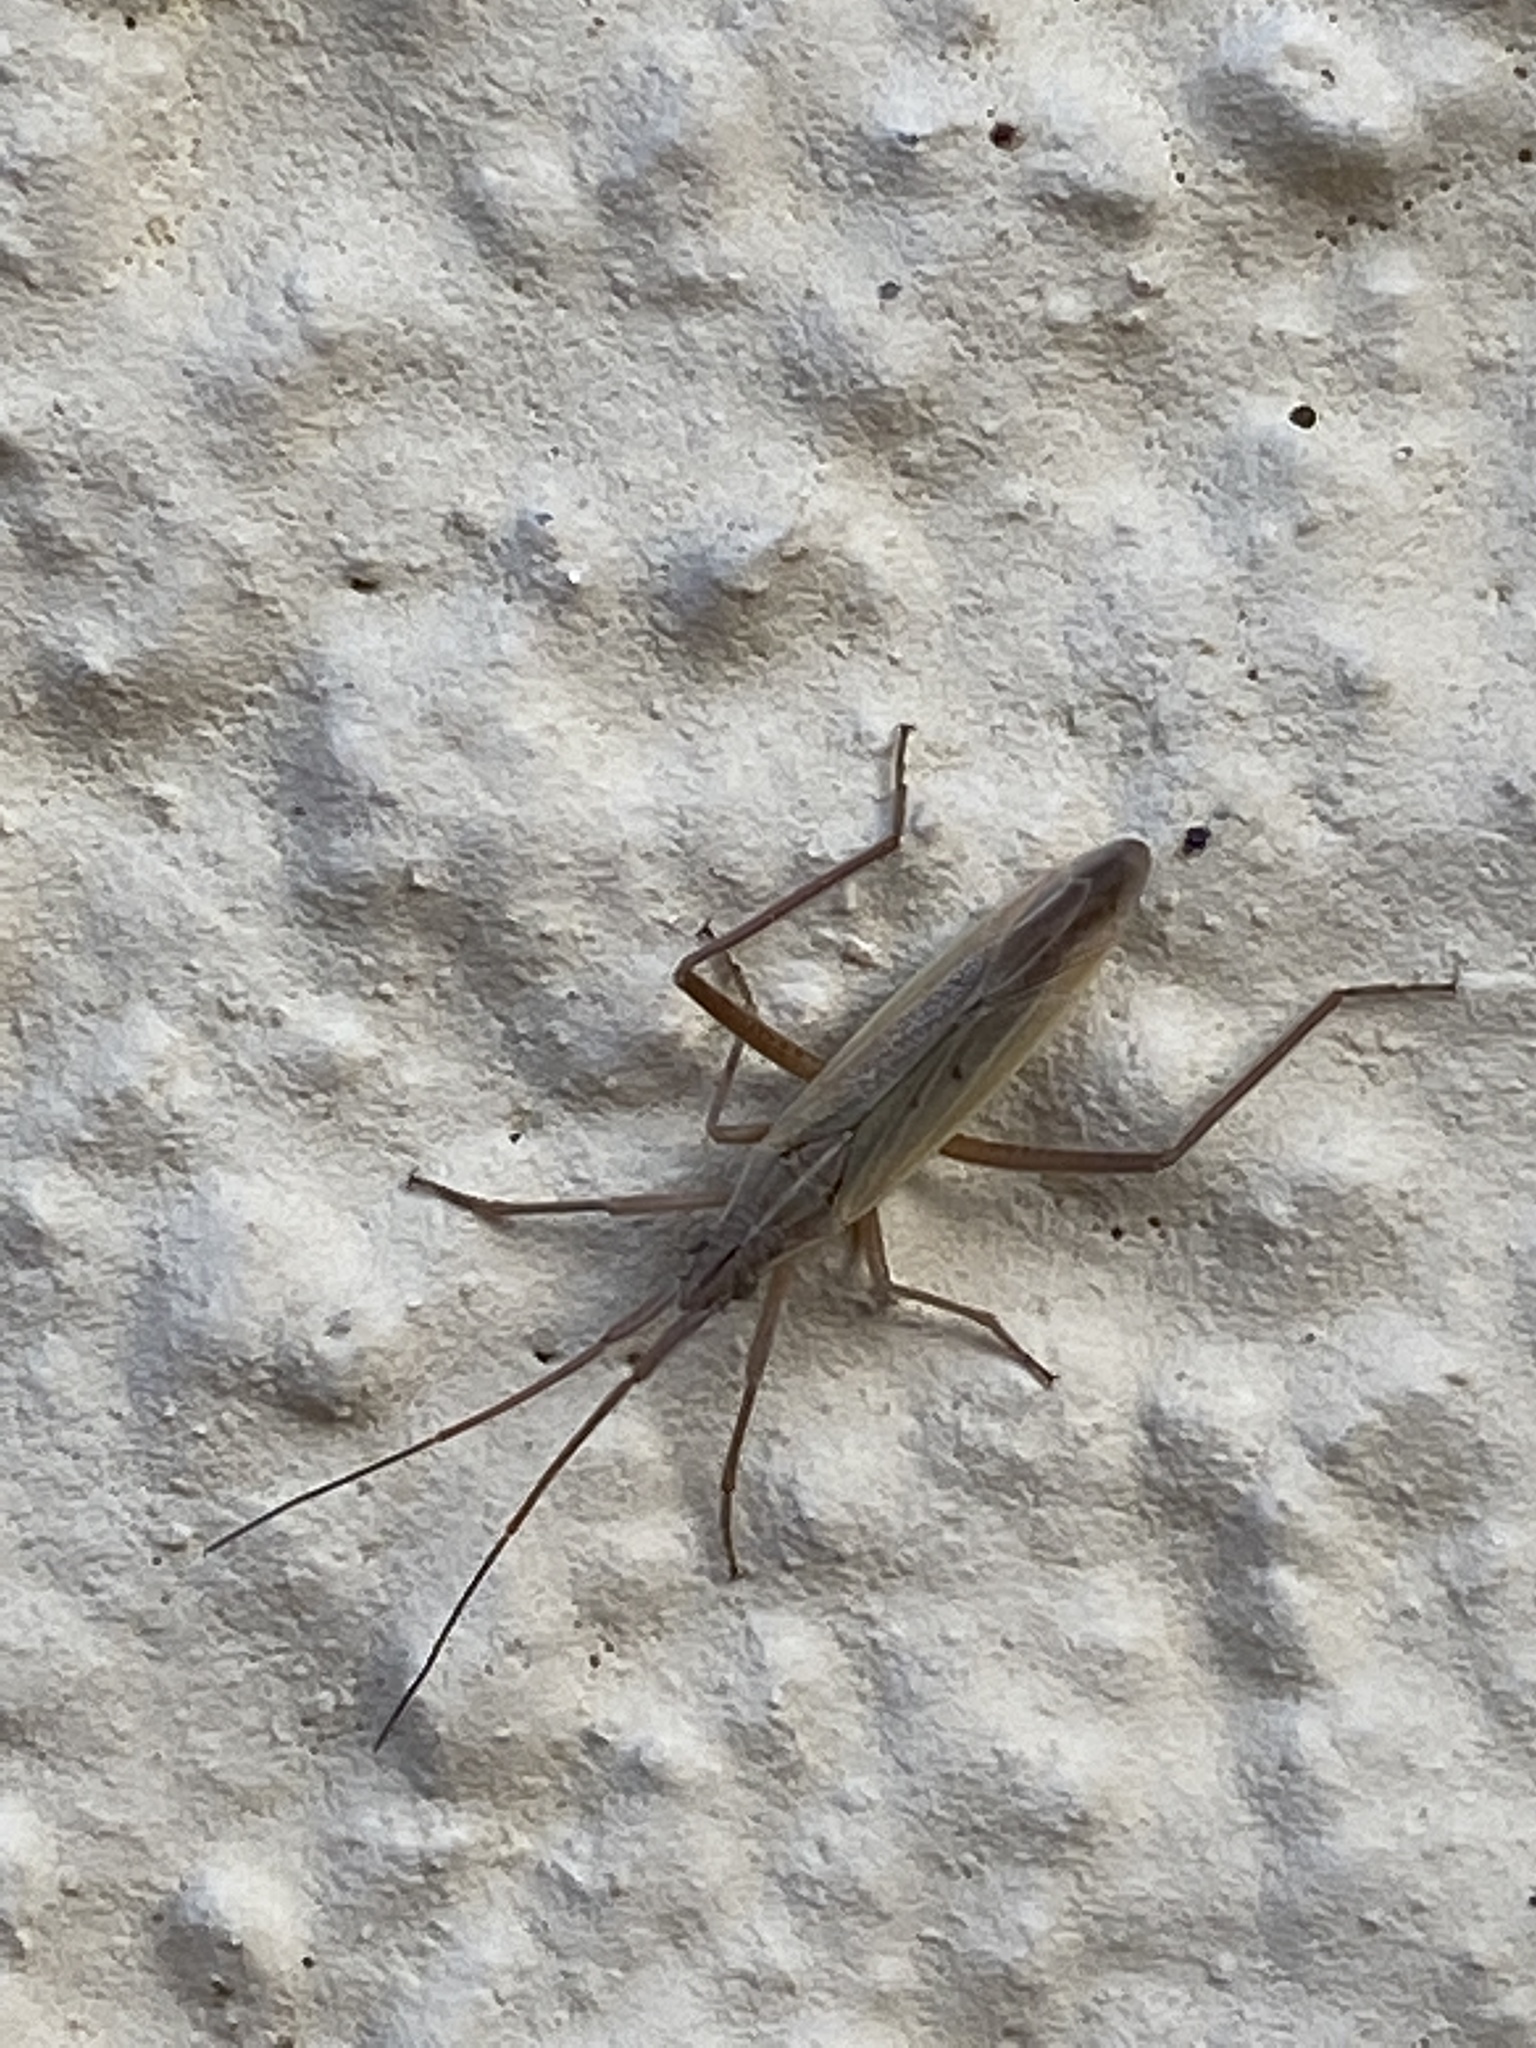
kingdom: Animalia
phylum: Arthropoda
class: Insecta
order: Hemiptera
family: Miridae
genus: Stenodema
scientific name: Stenodema laevigata
